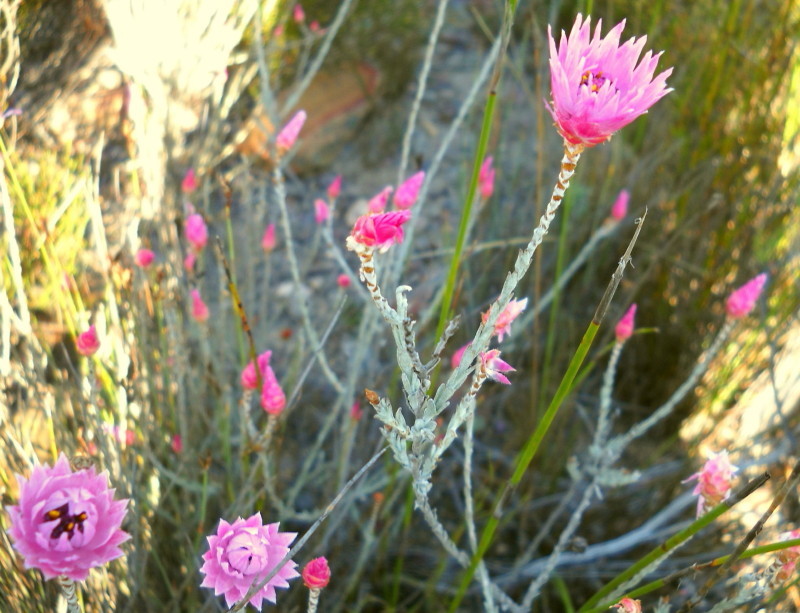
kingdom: Plantae
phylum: Tracheophyta
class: Magnoliopsida
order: Asterales
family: Asteraceae
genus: Syncarpha
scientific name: Syncarpha canescens
